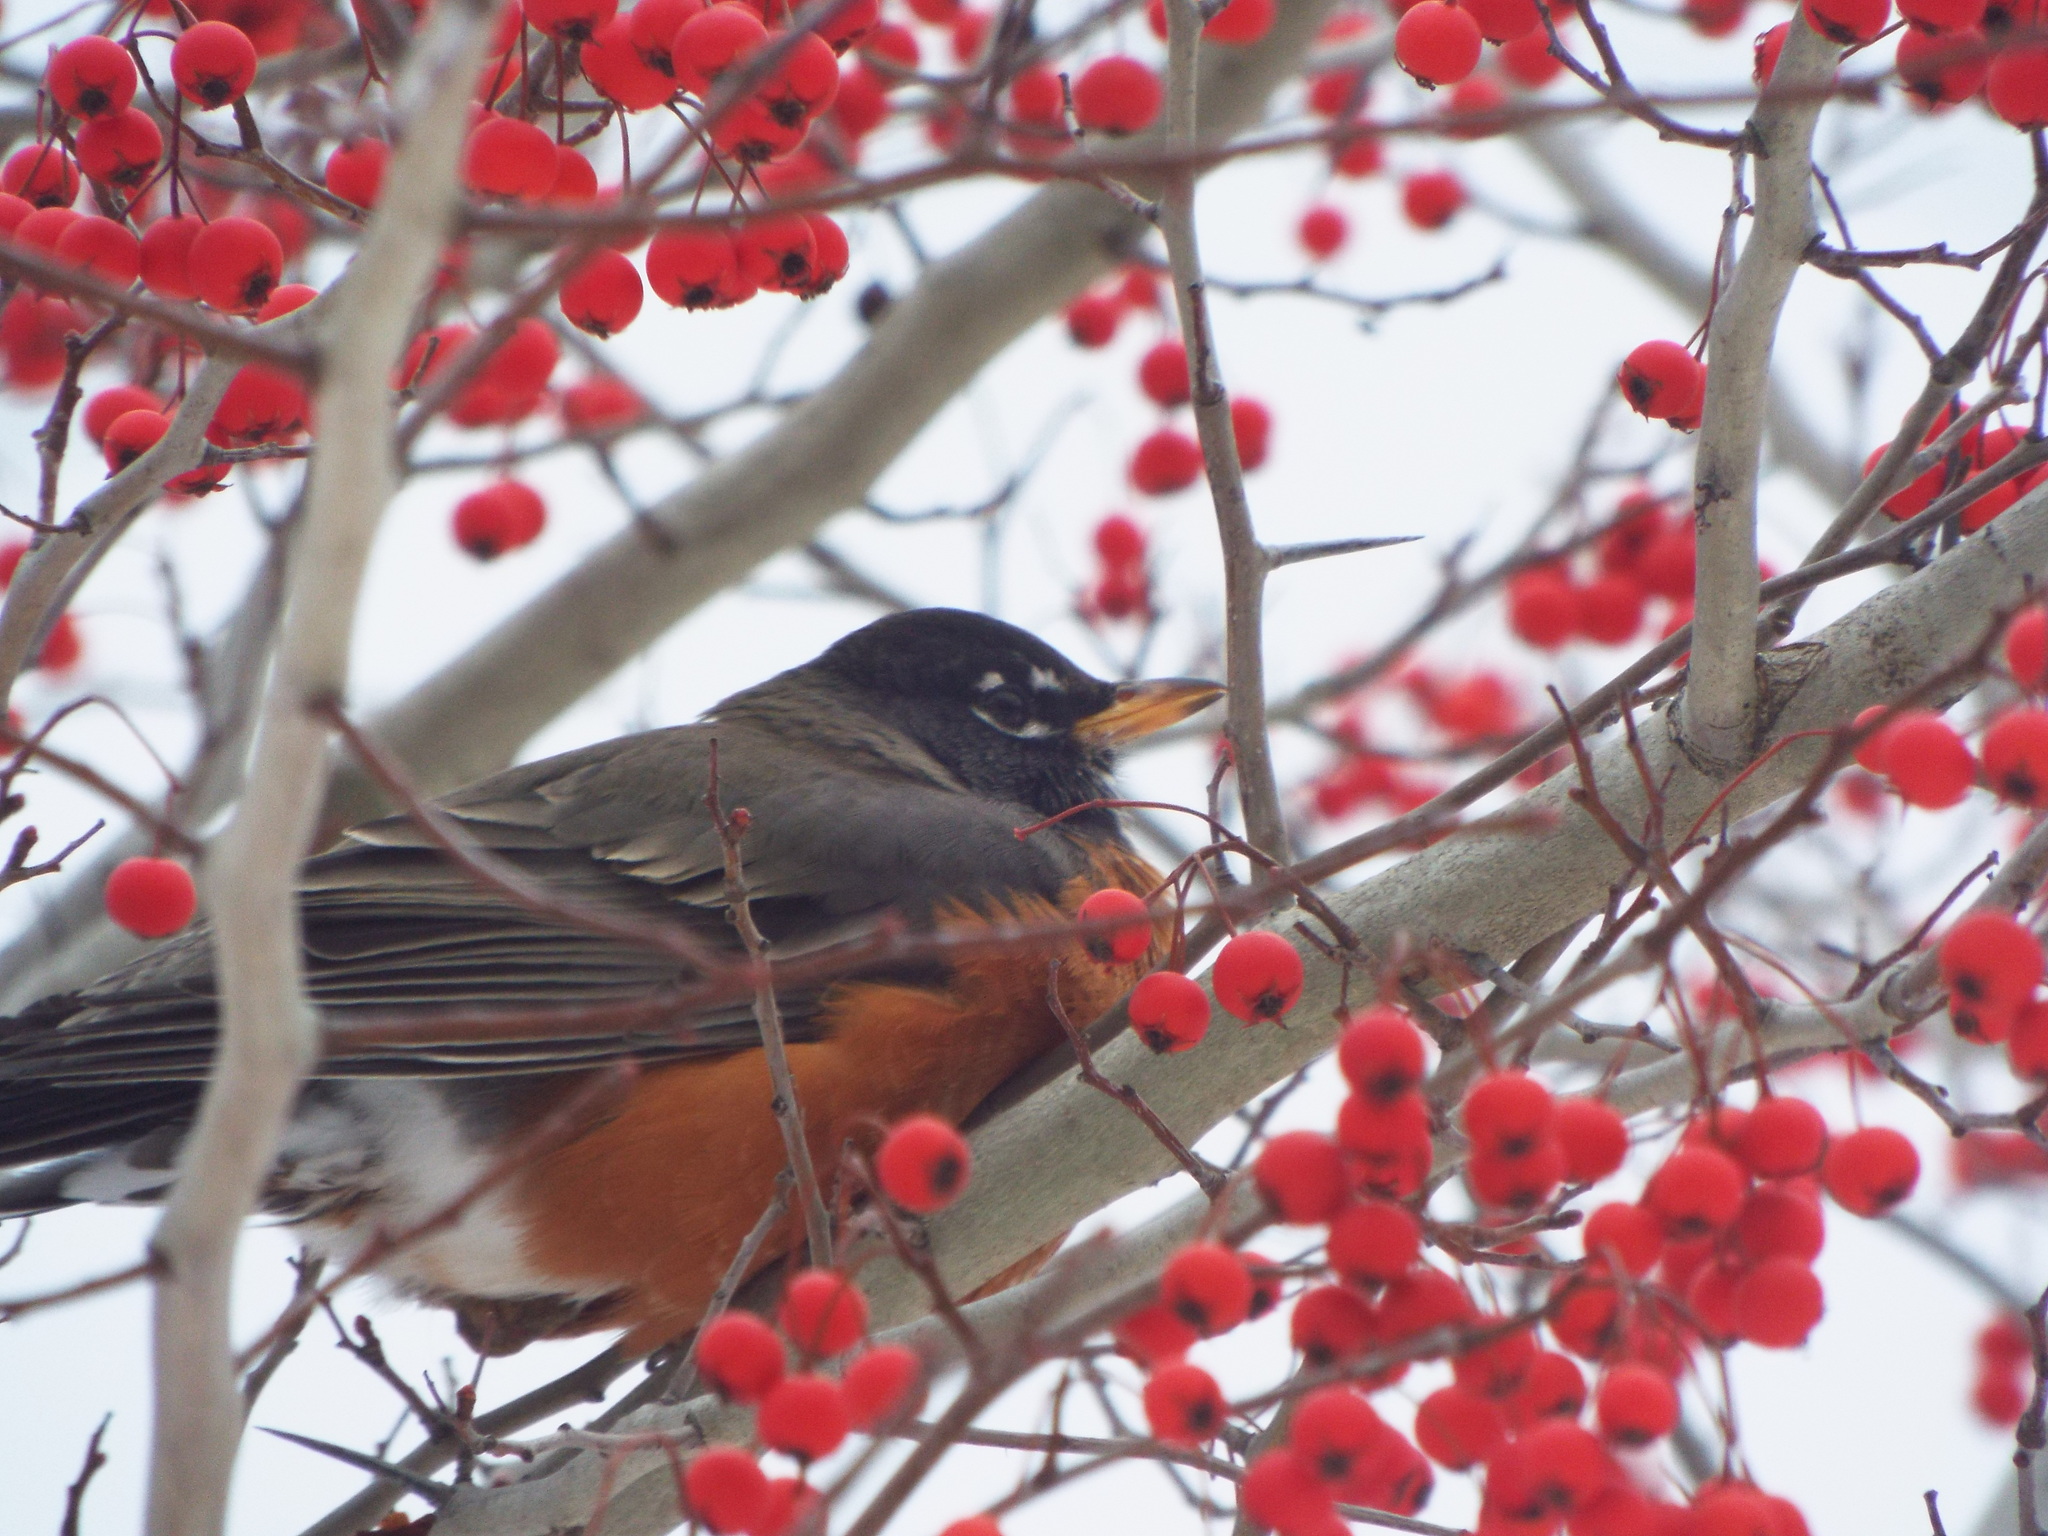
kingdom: Animalia
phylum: Chordata
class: Aves
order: Passeriformes
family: Turdidae
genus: Turdus
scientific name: Turdus migratorius
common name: American robin
